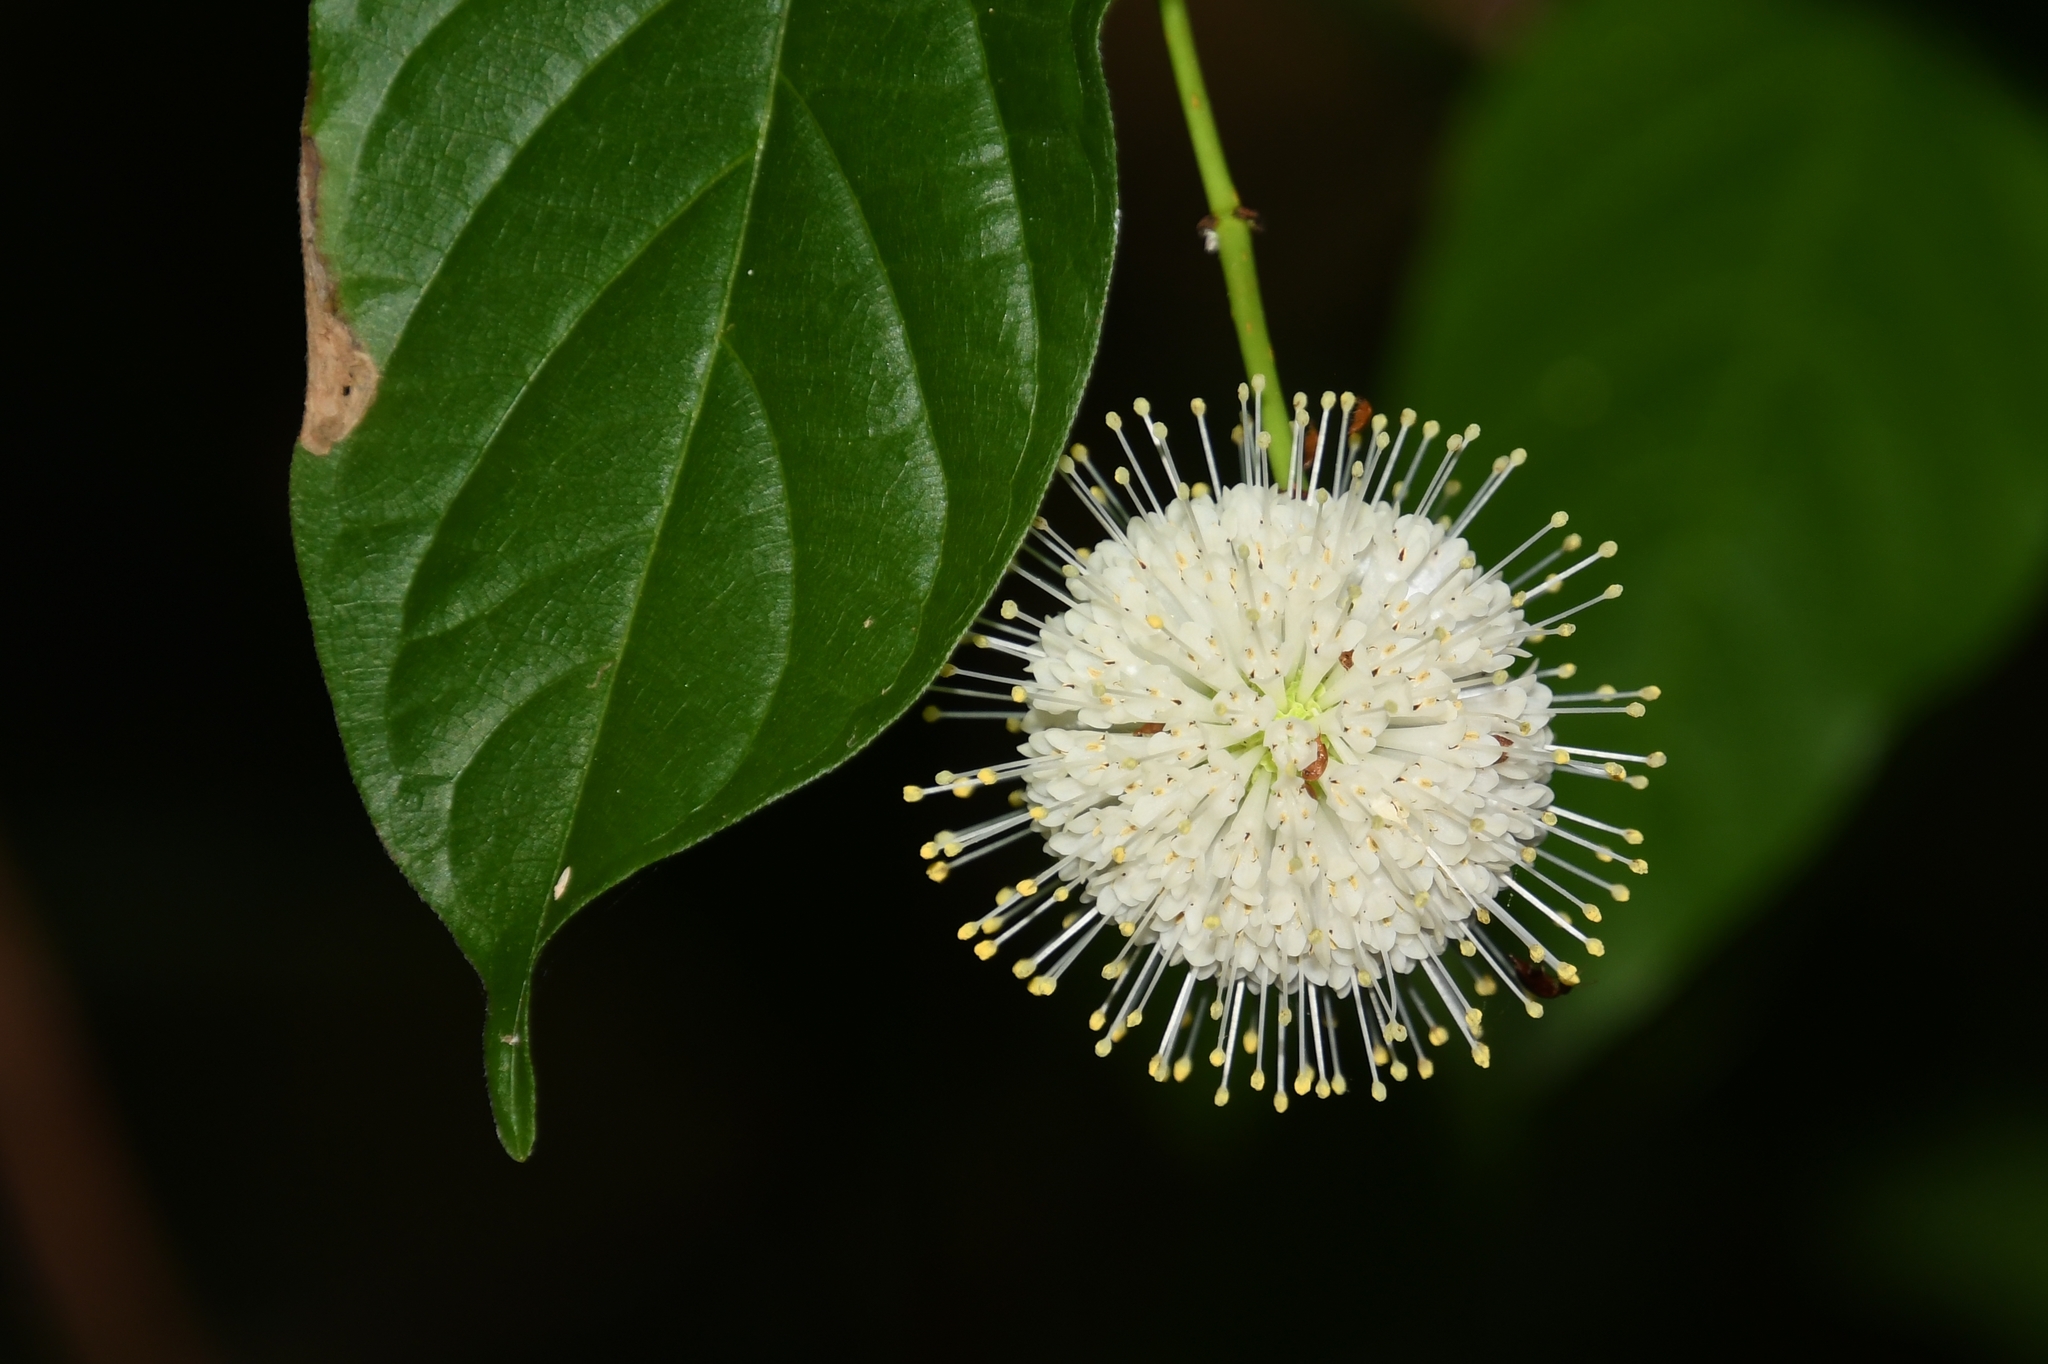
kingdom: Plantae
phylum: Tracheophyta
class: Magnoliopsida
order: Gentianales
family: Rubiaceae
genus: Cephalanthus
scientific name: Cephalanthus occidentalis
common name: Button-willow
